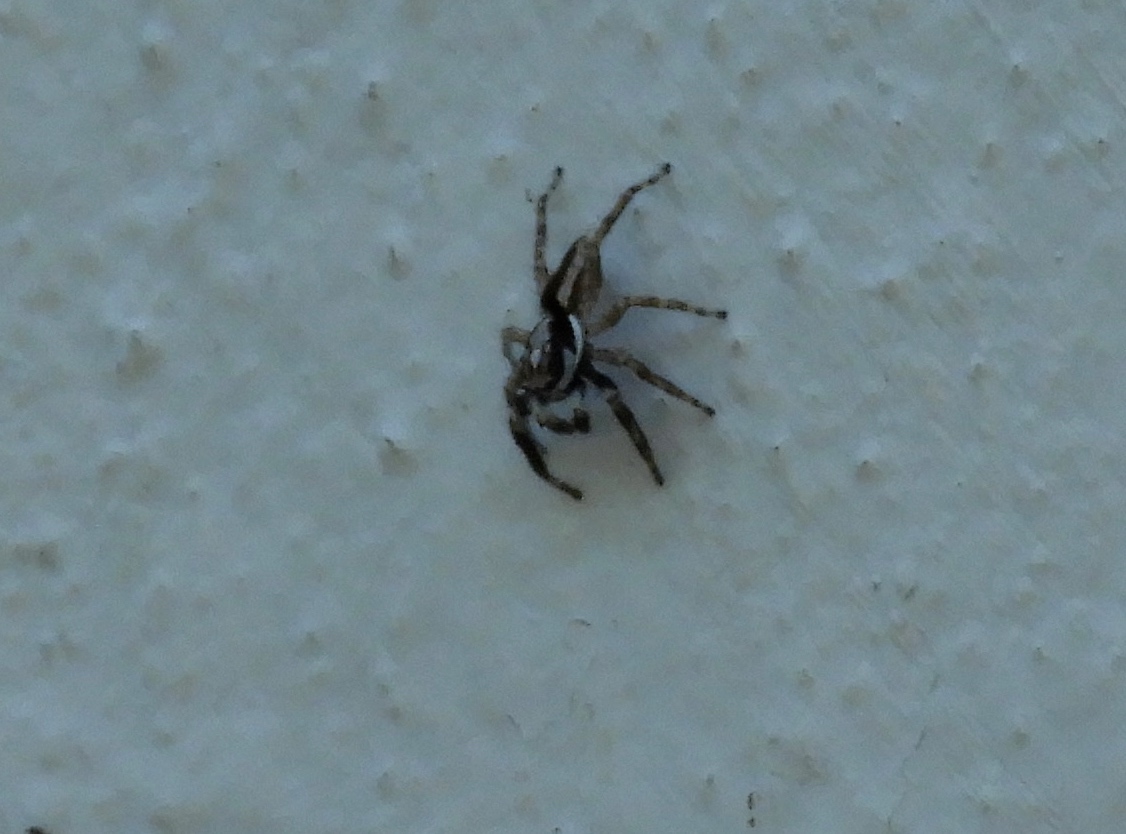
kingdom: Animalia
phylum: Arthropoda
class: Arachnida
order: Araneae
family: Salticidae
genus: Menemerus
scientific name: Menemerus bivittatus
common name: Gray wall jumper
